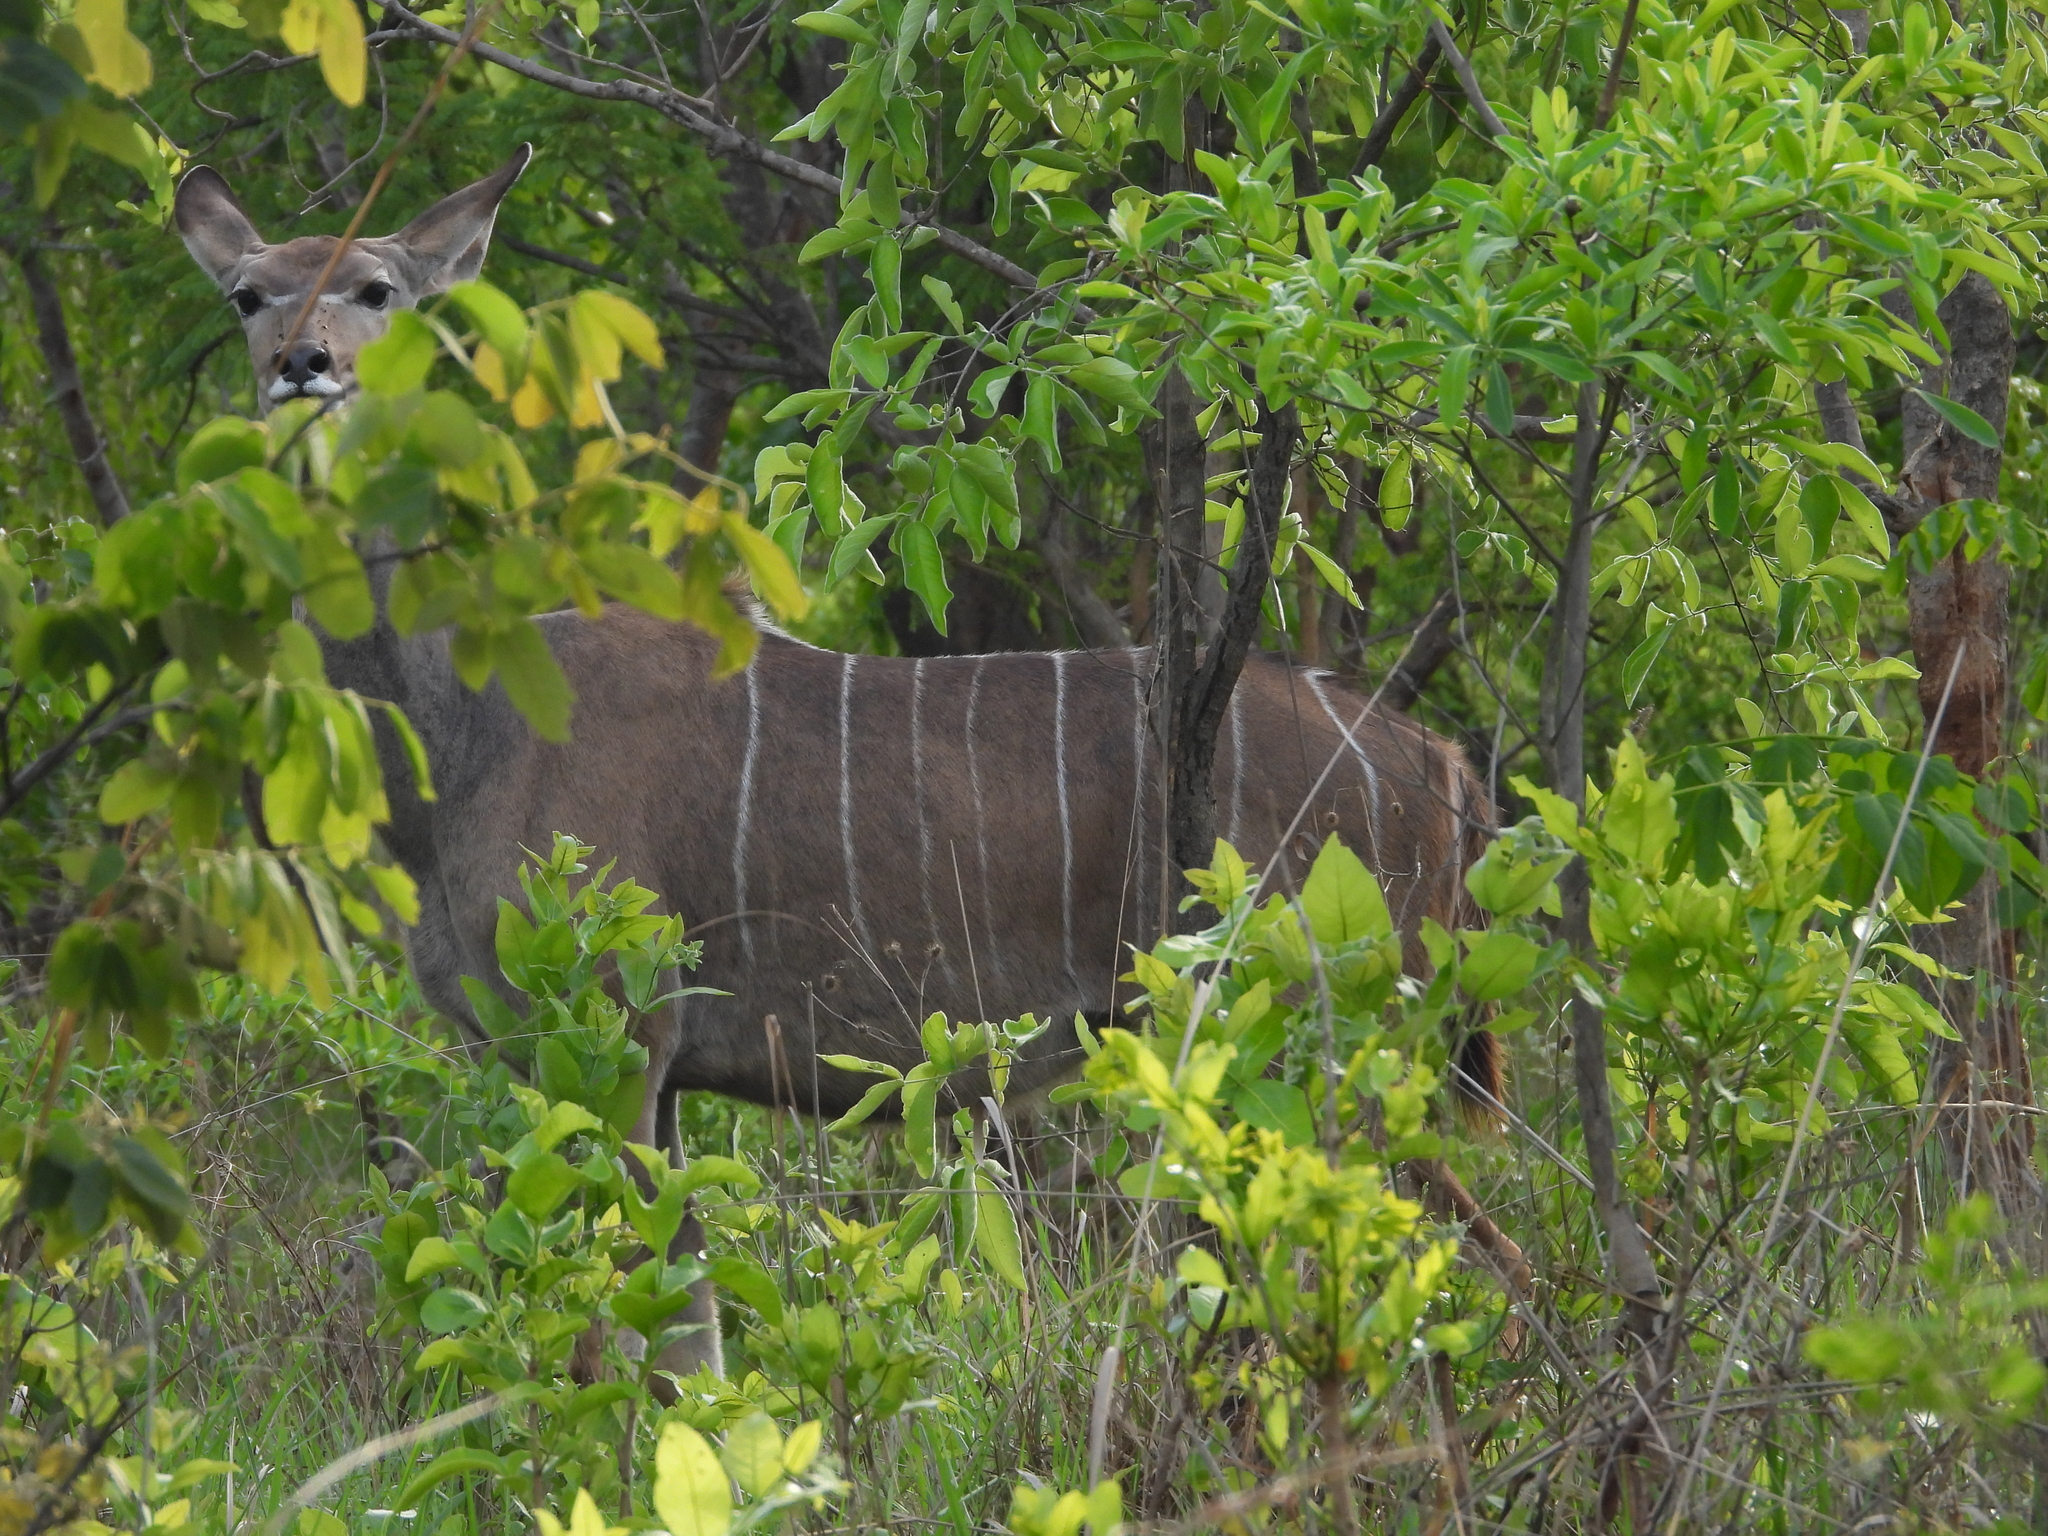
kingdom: Animalia
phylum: Chordata
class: Mammalia
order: Artiodactyla
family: Bovidae
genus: Tragelaphus
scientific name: Tragelaphus strepsiceros
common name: Greater kudu
